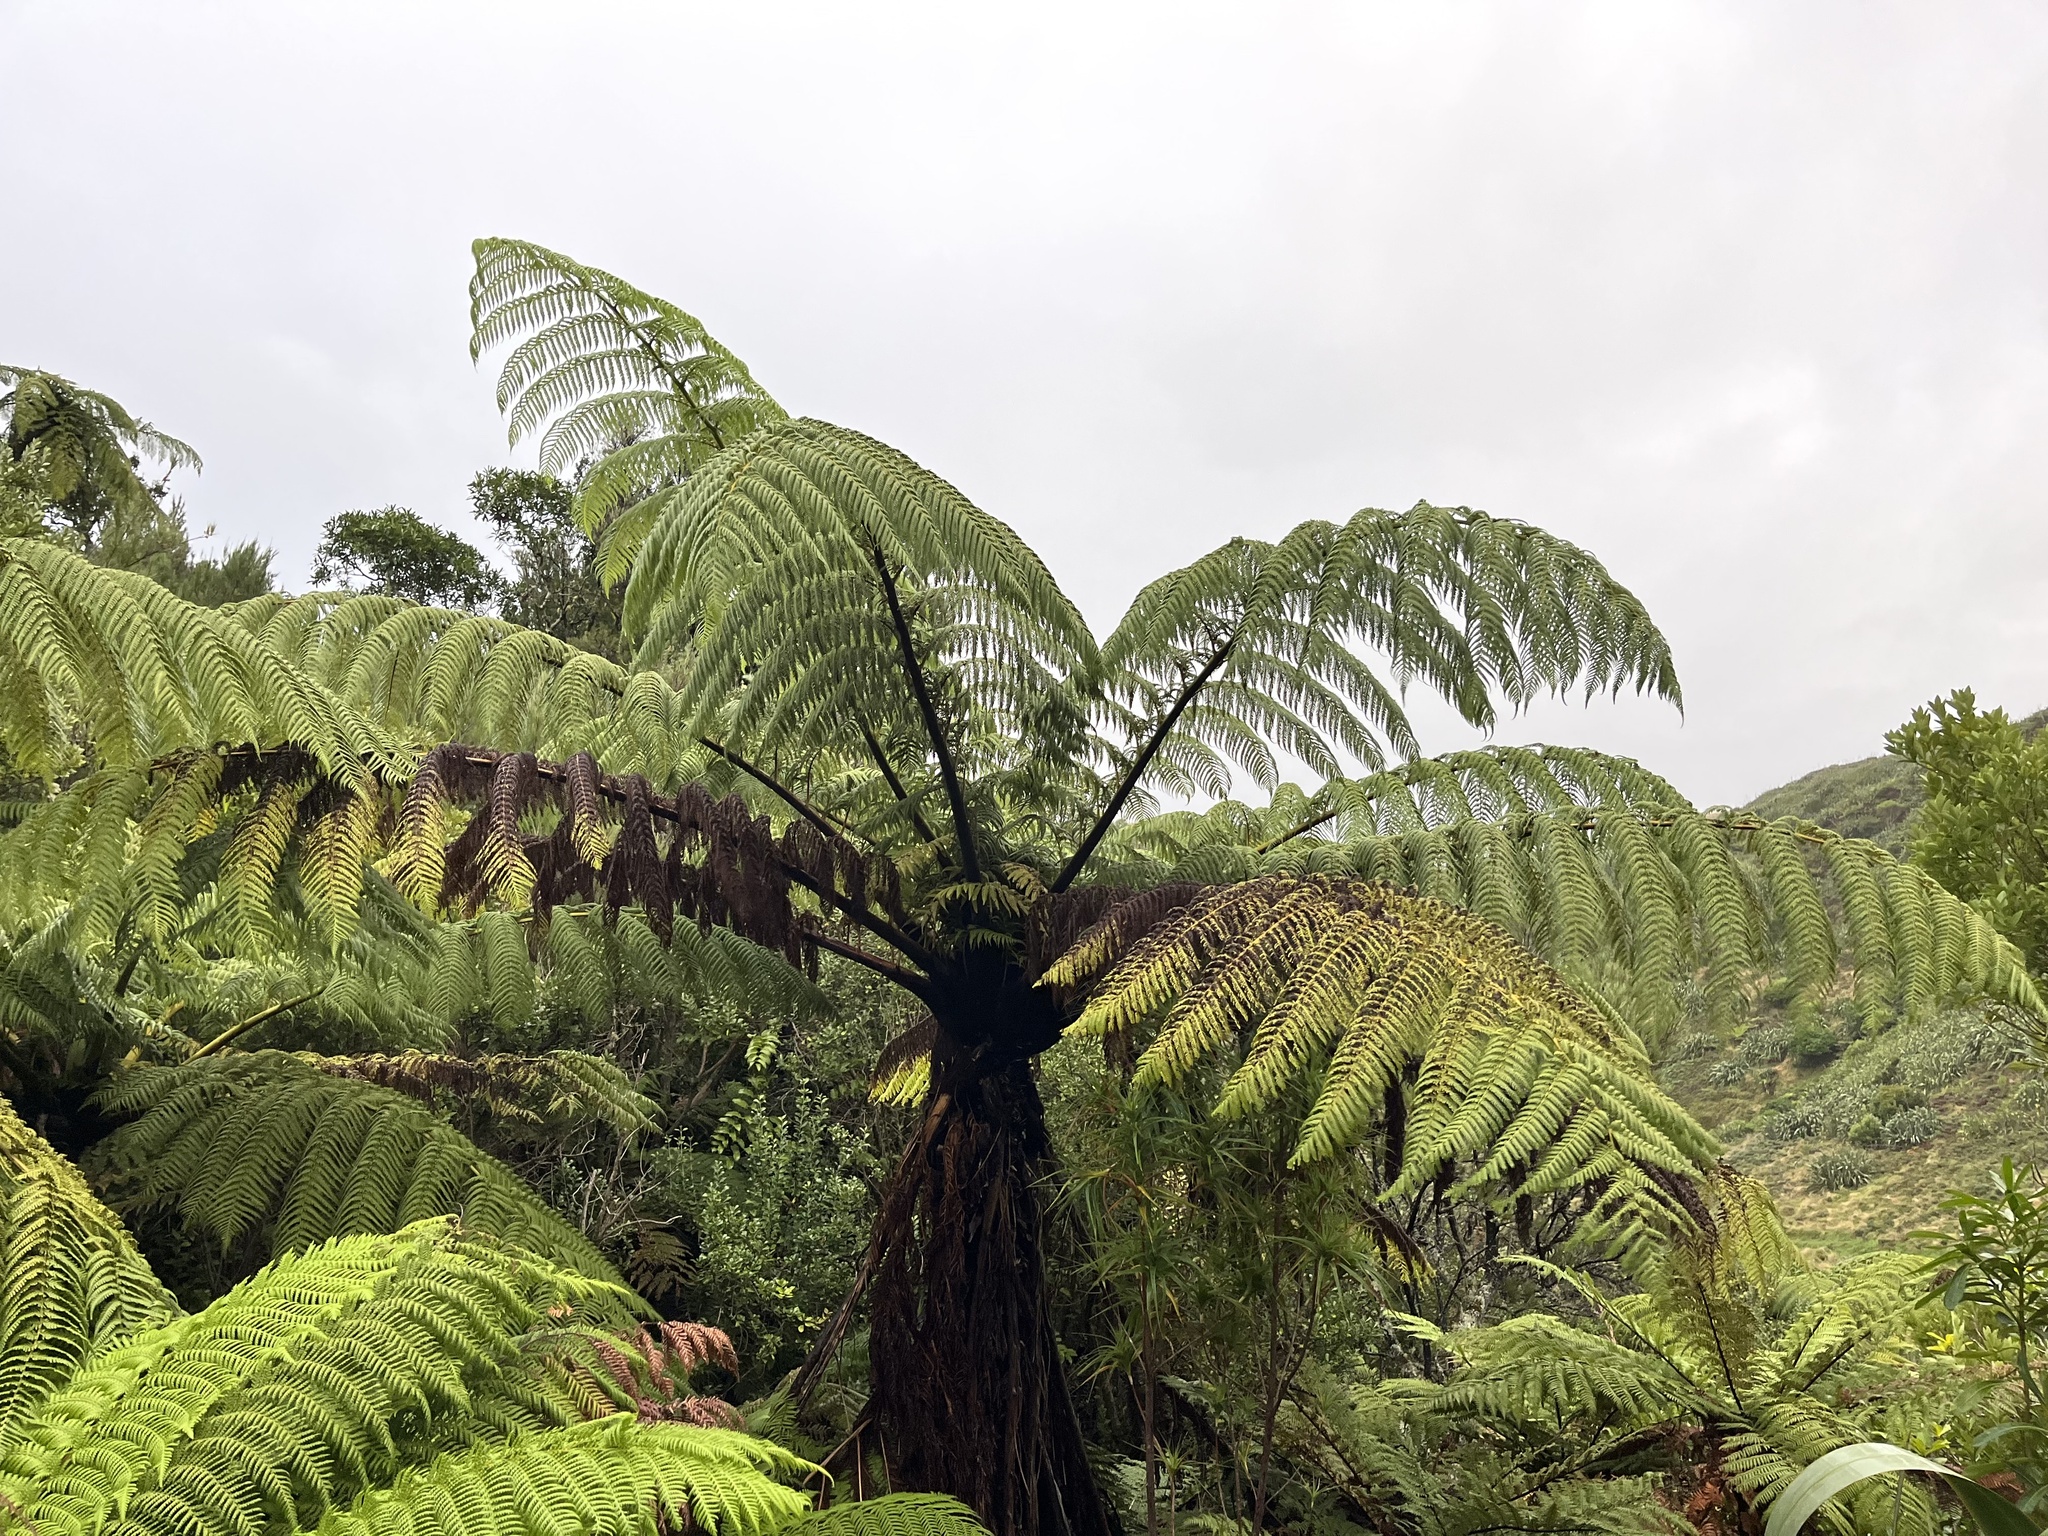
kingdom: Plantae
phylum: Tracheophyta
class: Polypodiopsida
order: Cyatheales
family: Cyatheaceae
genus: Sphaeropteris
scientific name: Sphaeropteris medullaris
